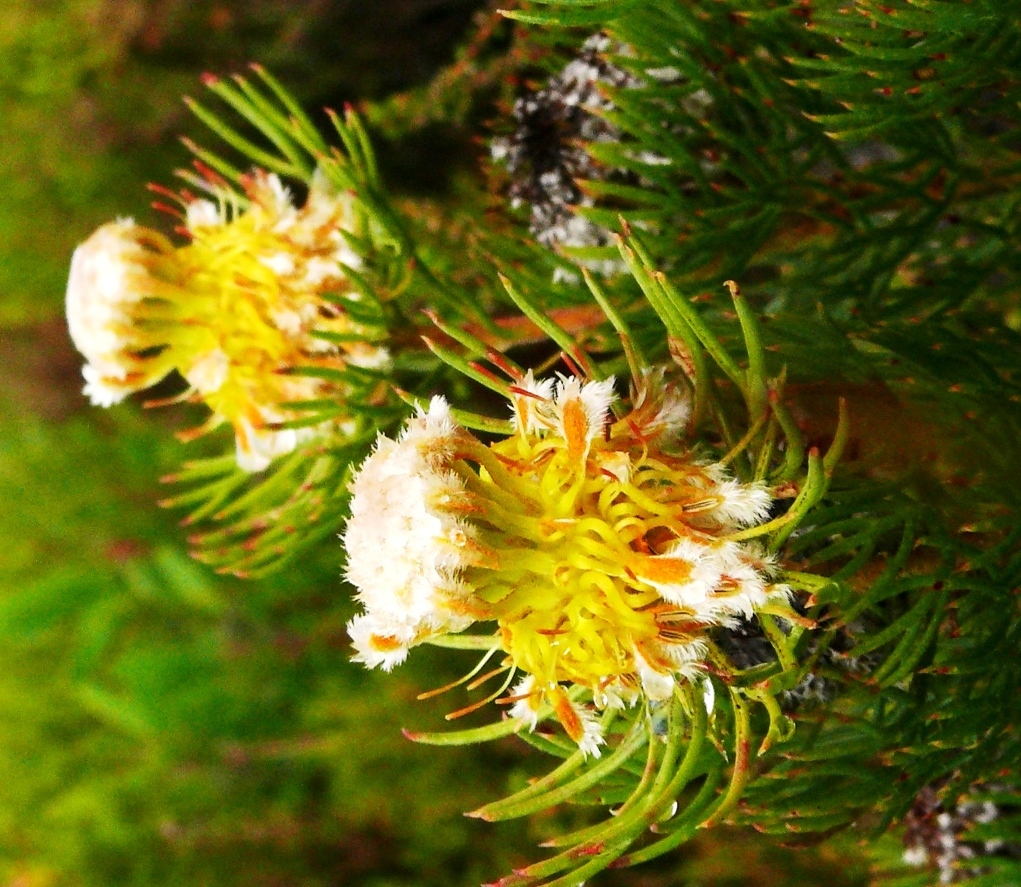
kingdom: Plantae
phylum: Tracheophyta
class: Magnoliopsida
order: Proteales
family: Proteaceae
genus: Serruria
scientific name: Serruria villosa
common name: Golden spiderhead
